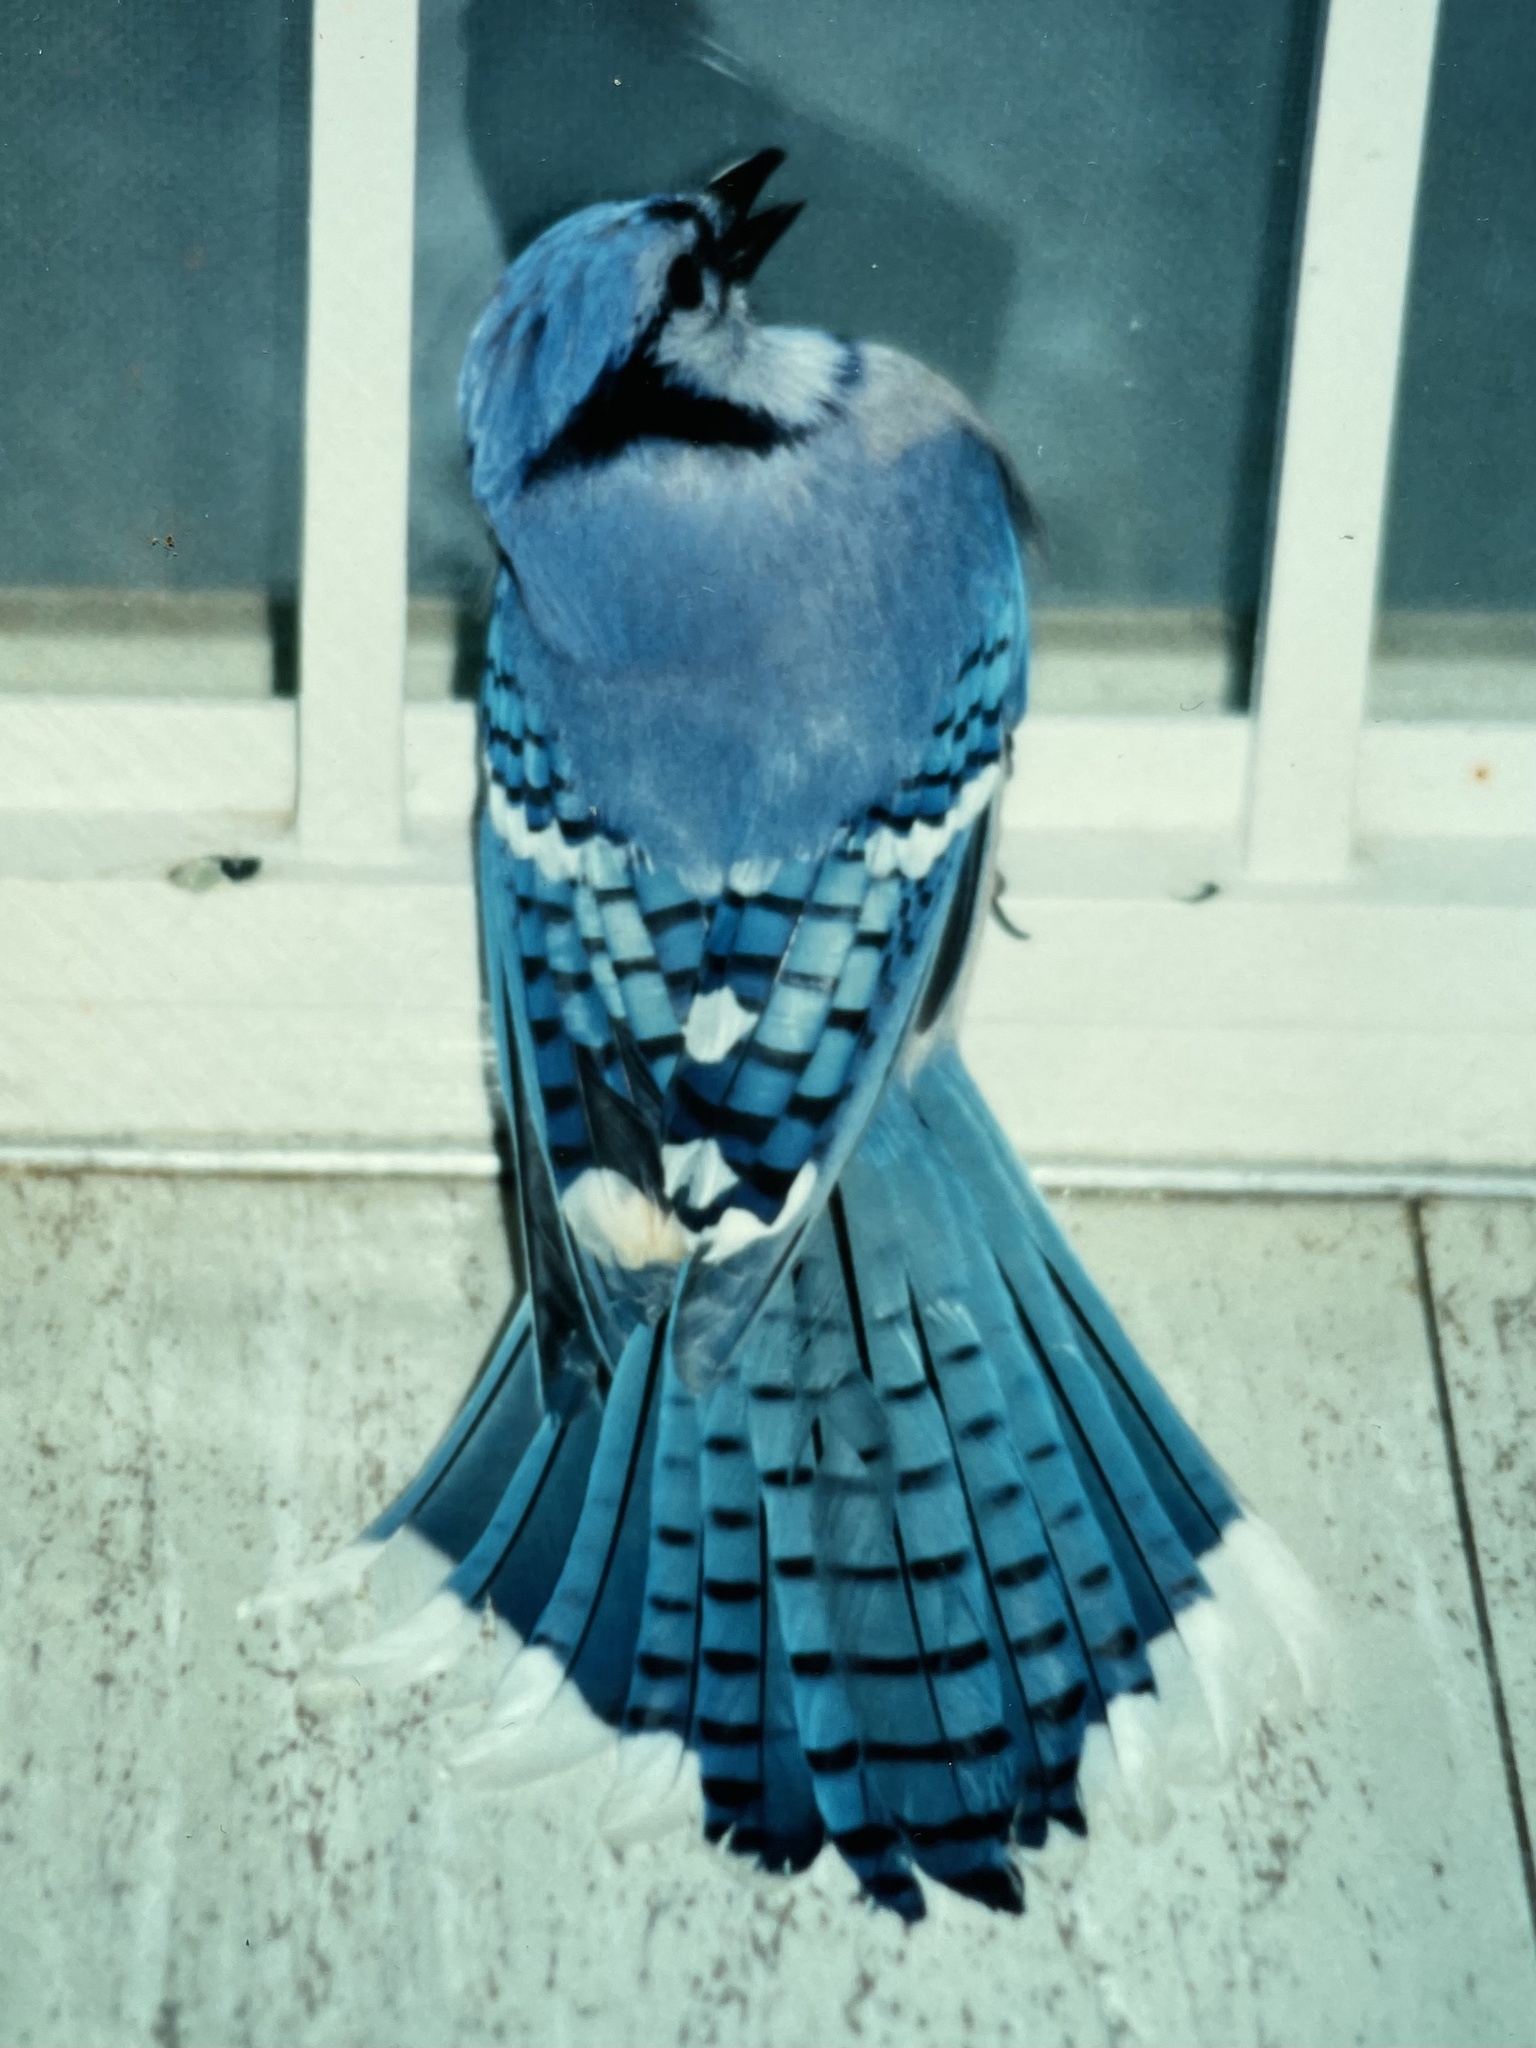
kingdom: Animalia
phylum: Chordata
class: Aves
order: Passeriformes
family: Corvidae
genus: Cyanocitta
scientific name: Cyanocitta cristata
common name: Blue jay
